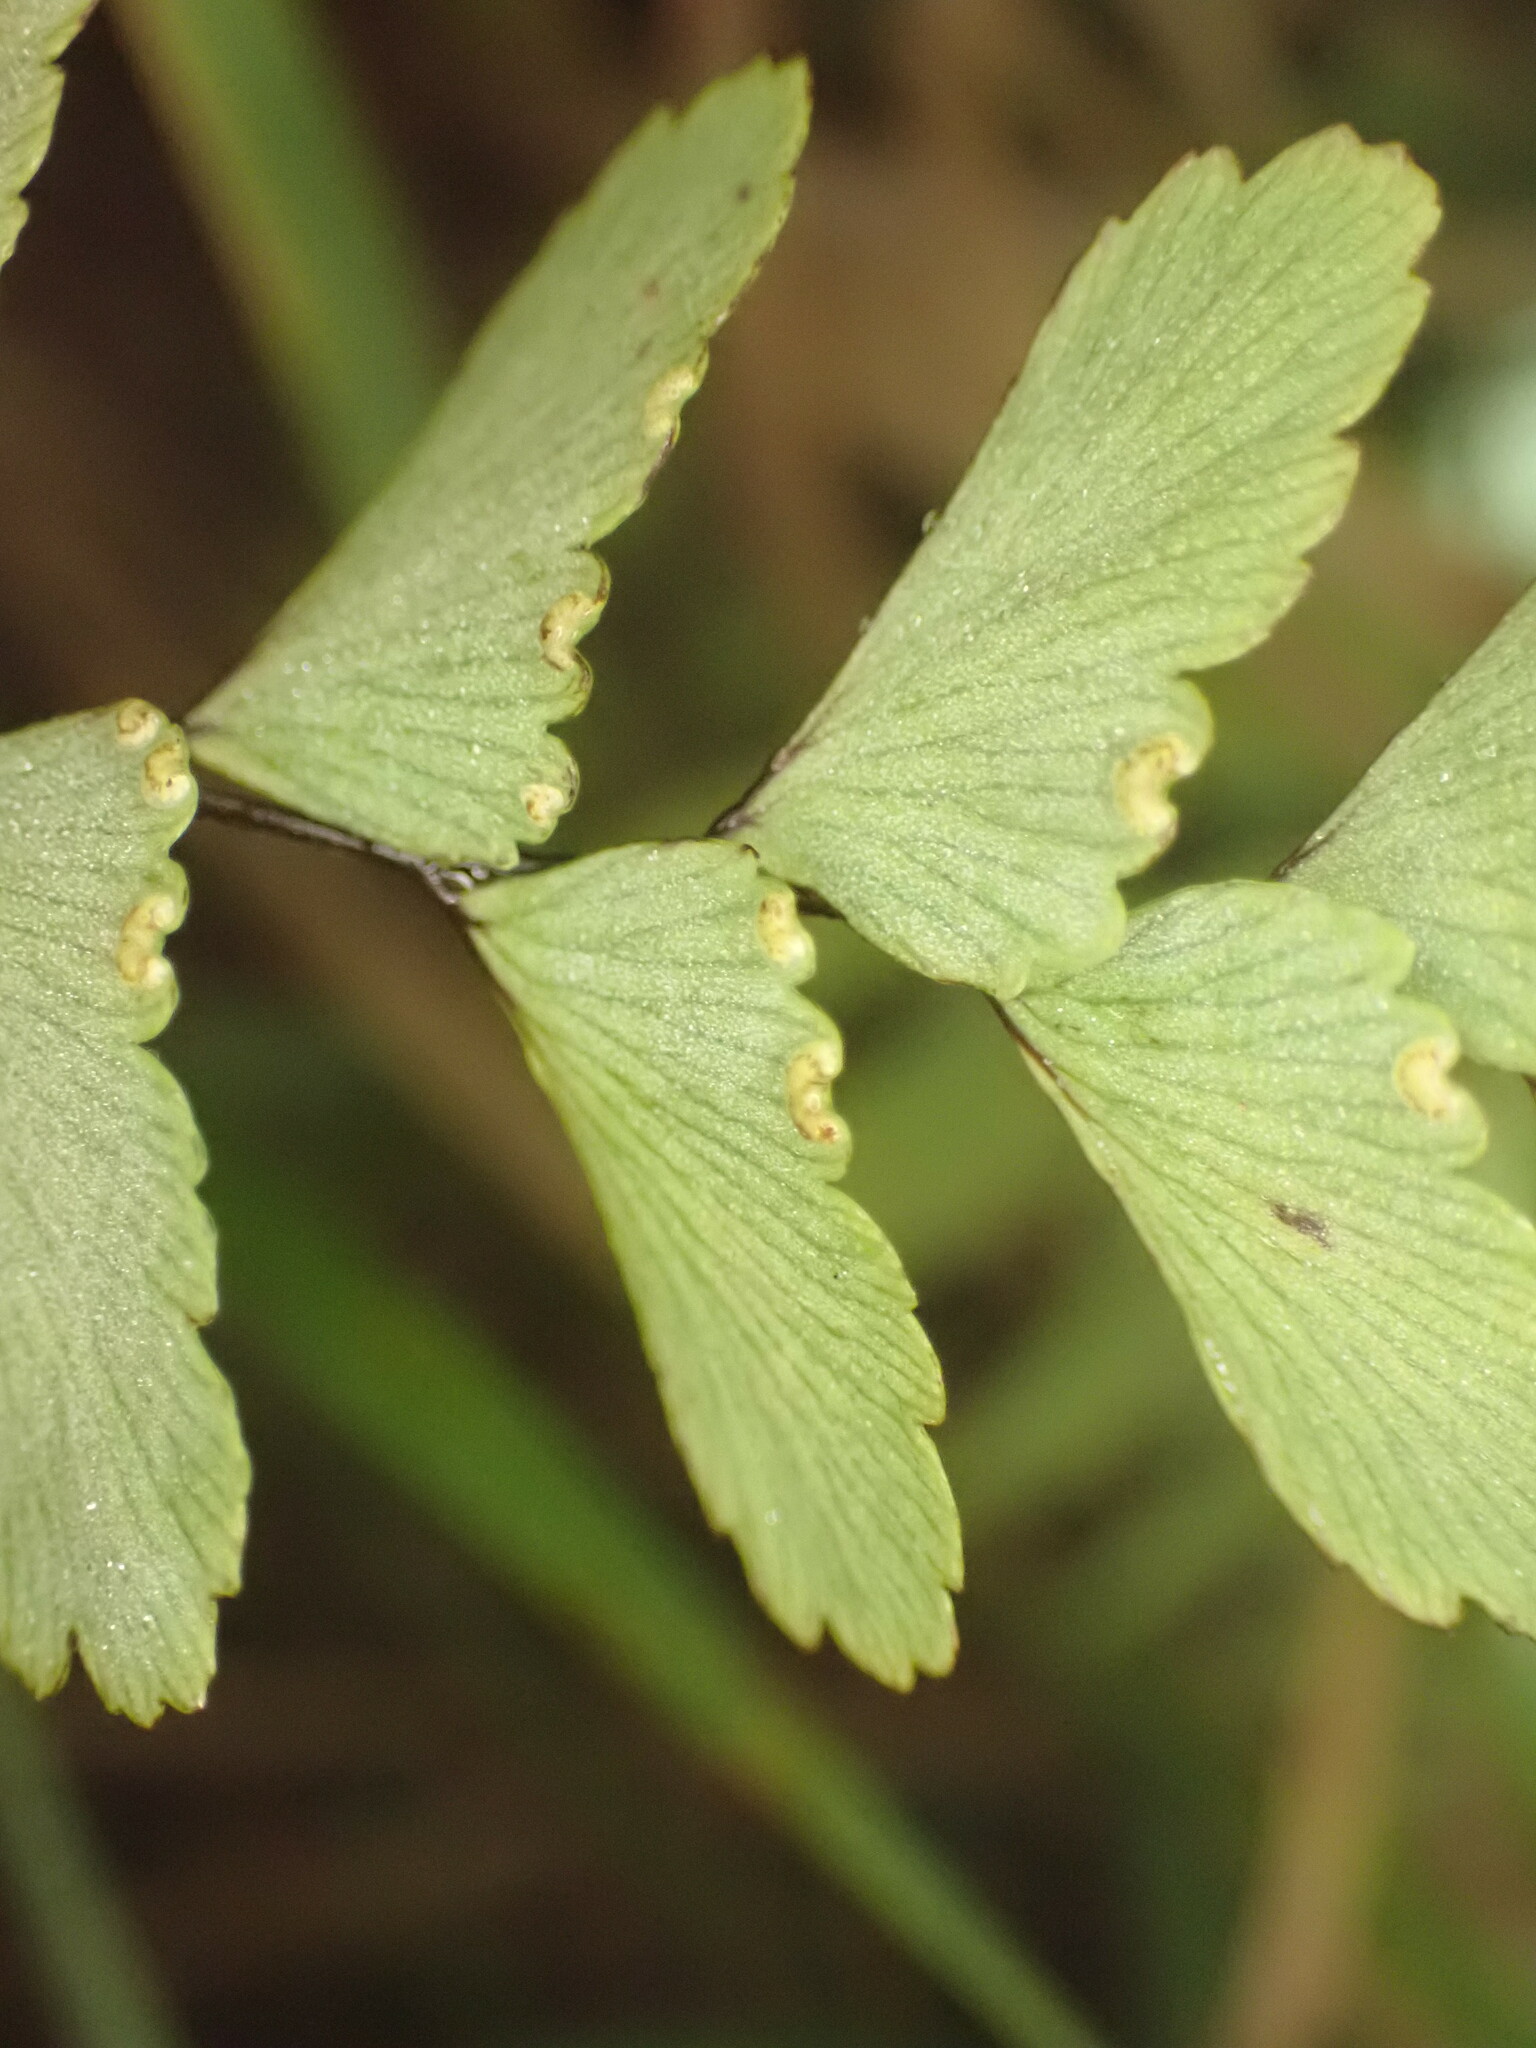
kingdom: Plantae
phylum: Tracheophyta
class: Polypodiopsida
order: Polypodiales
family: Pteridaceae
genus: Adiantum
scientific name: Adiantum cunninghamii
